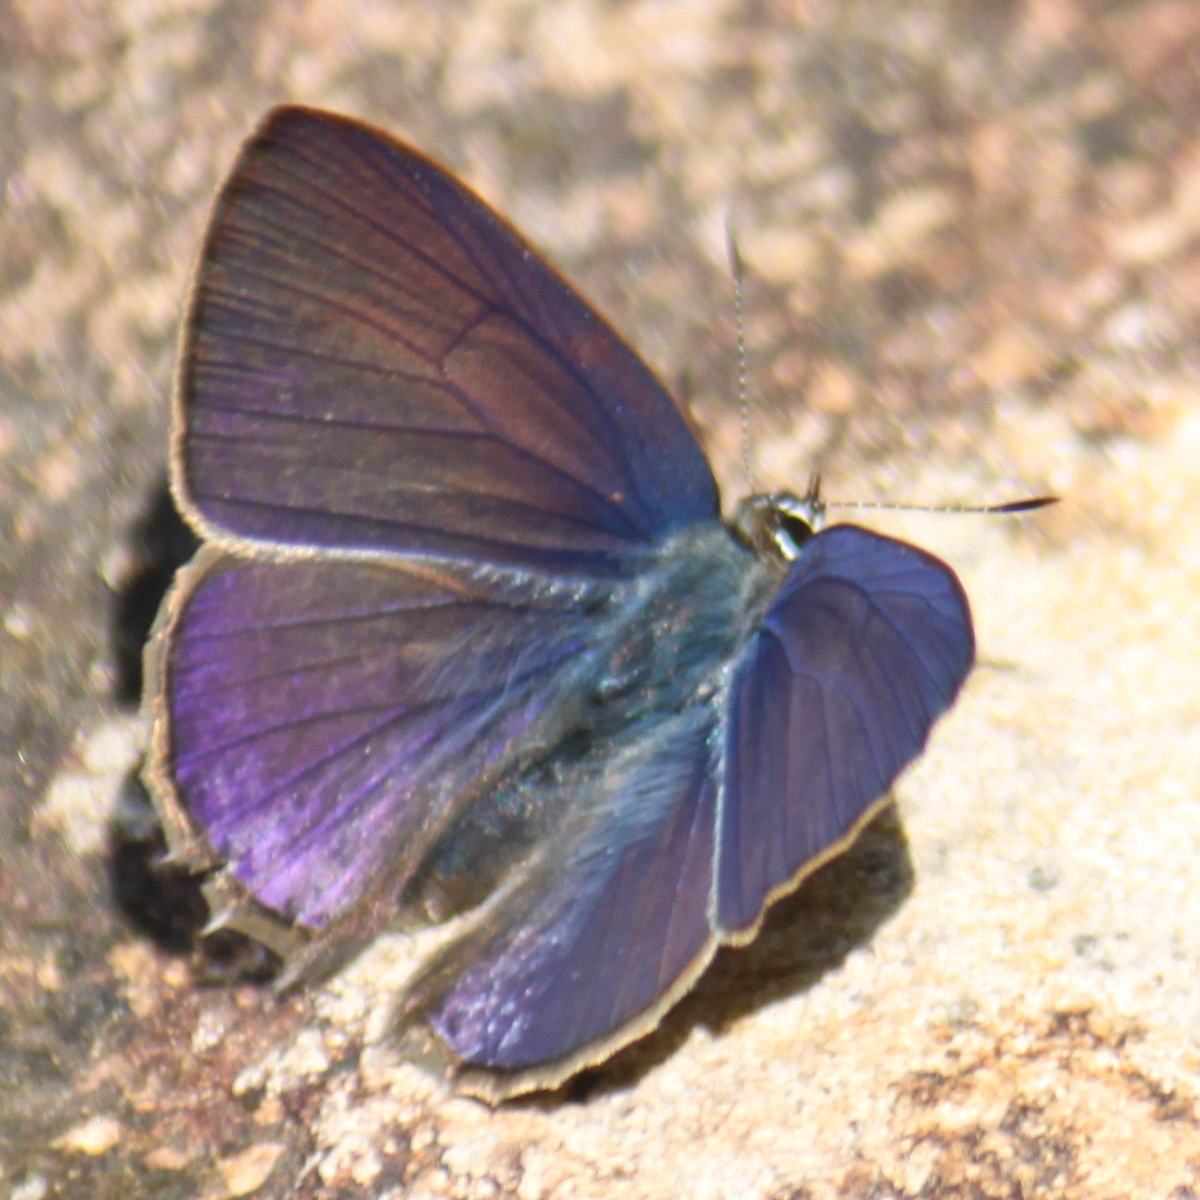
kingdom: Animalia
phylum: Arthropoda
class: Insecta
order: Lepidoptera
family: Lycaenidae
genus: Anthene
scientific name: Anthene emolus
